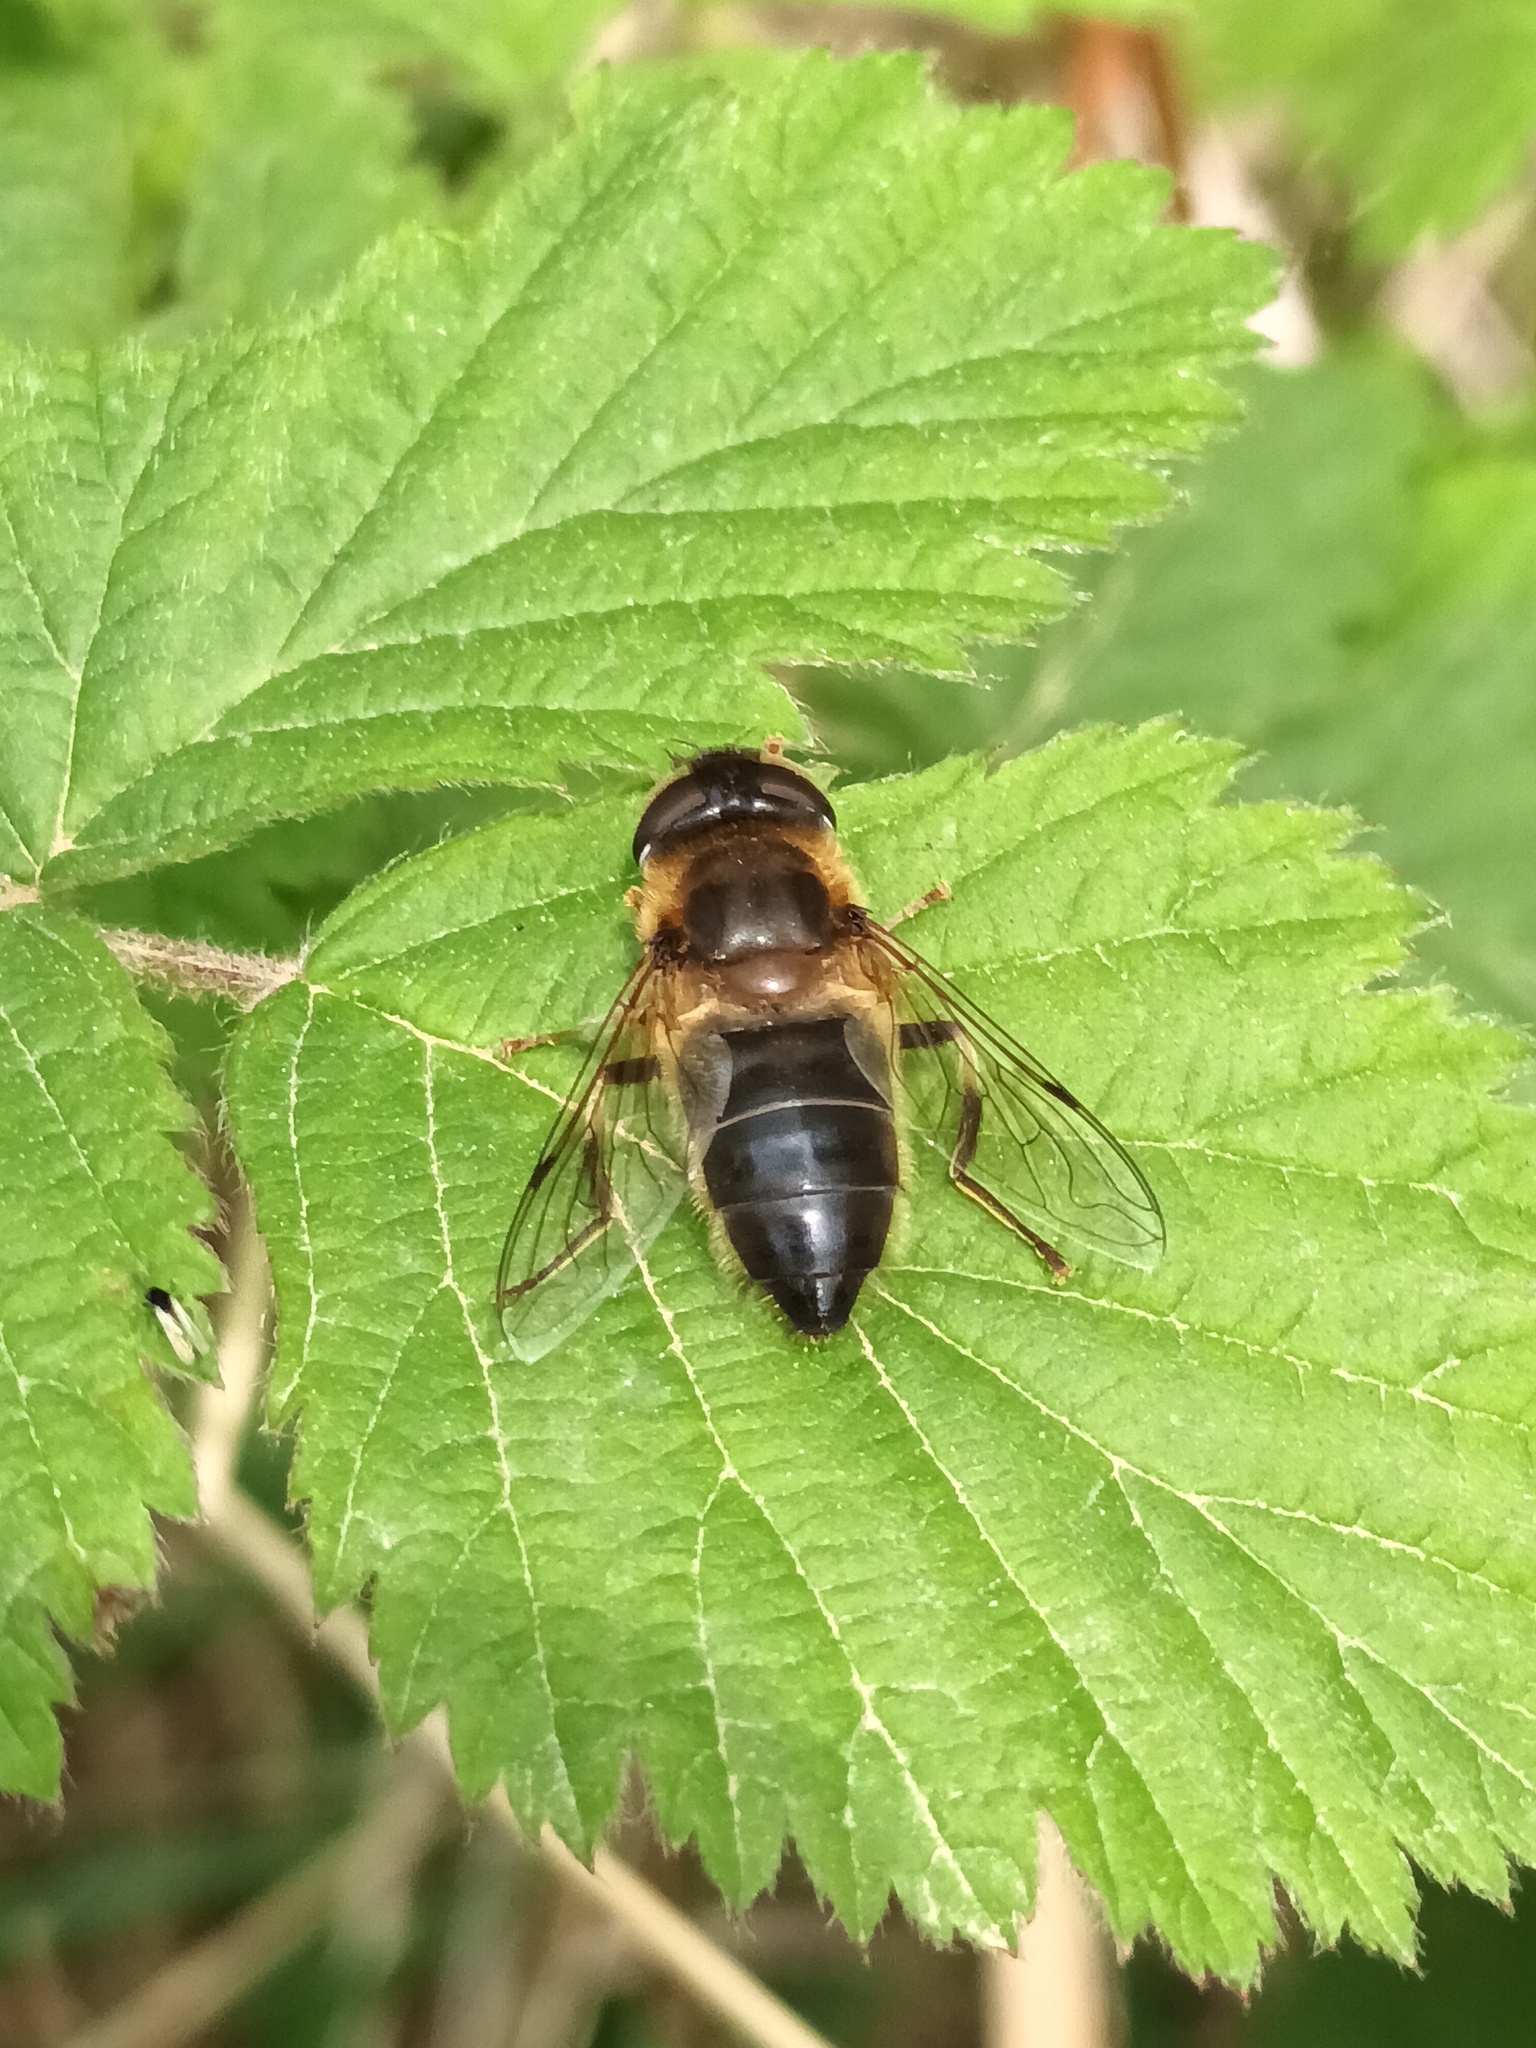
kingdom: Animalia
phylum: Arthropoda
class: Insecta
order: Diptera
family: Syrphidae
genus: Eristalis
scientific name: Eristalis pertinax
